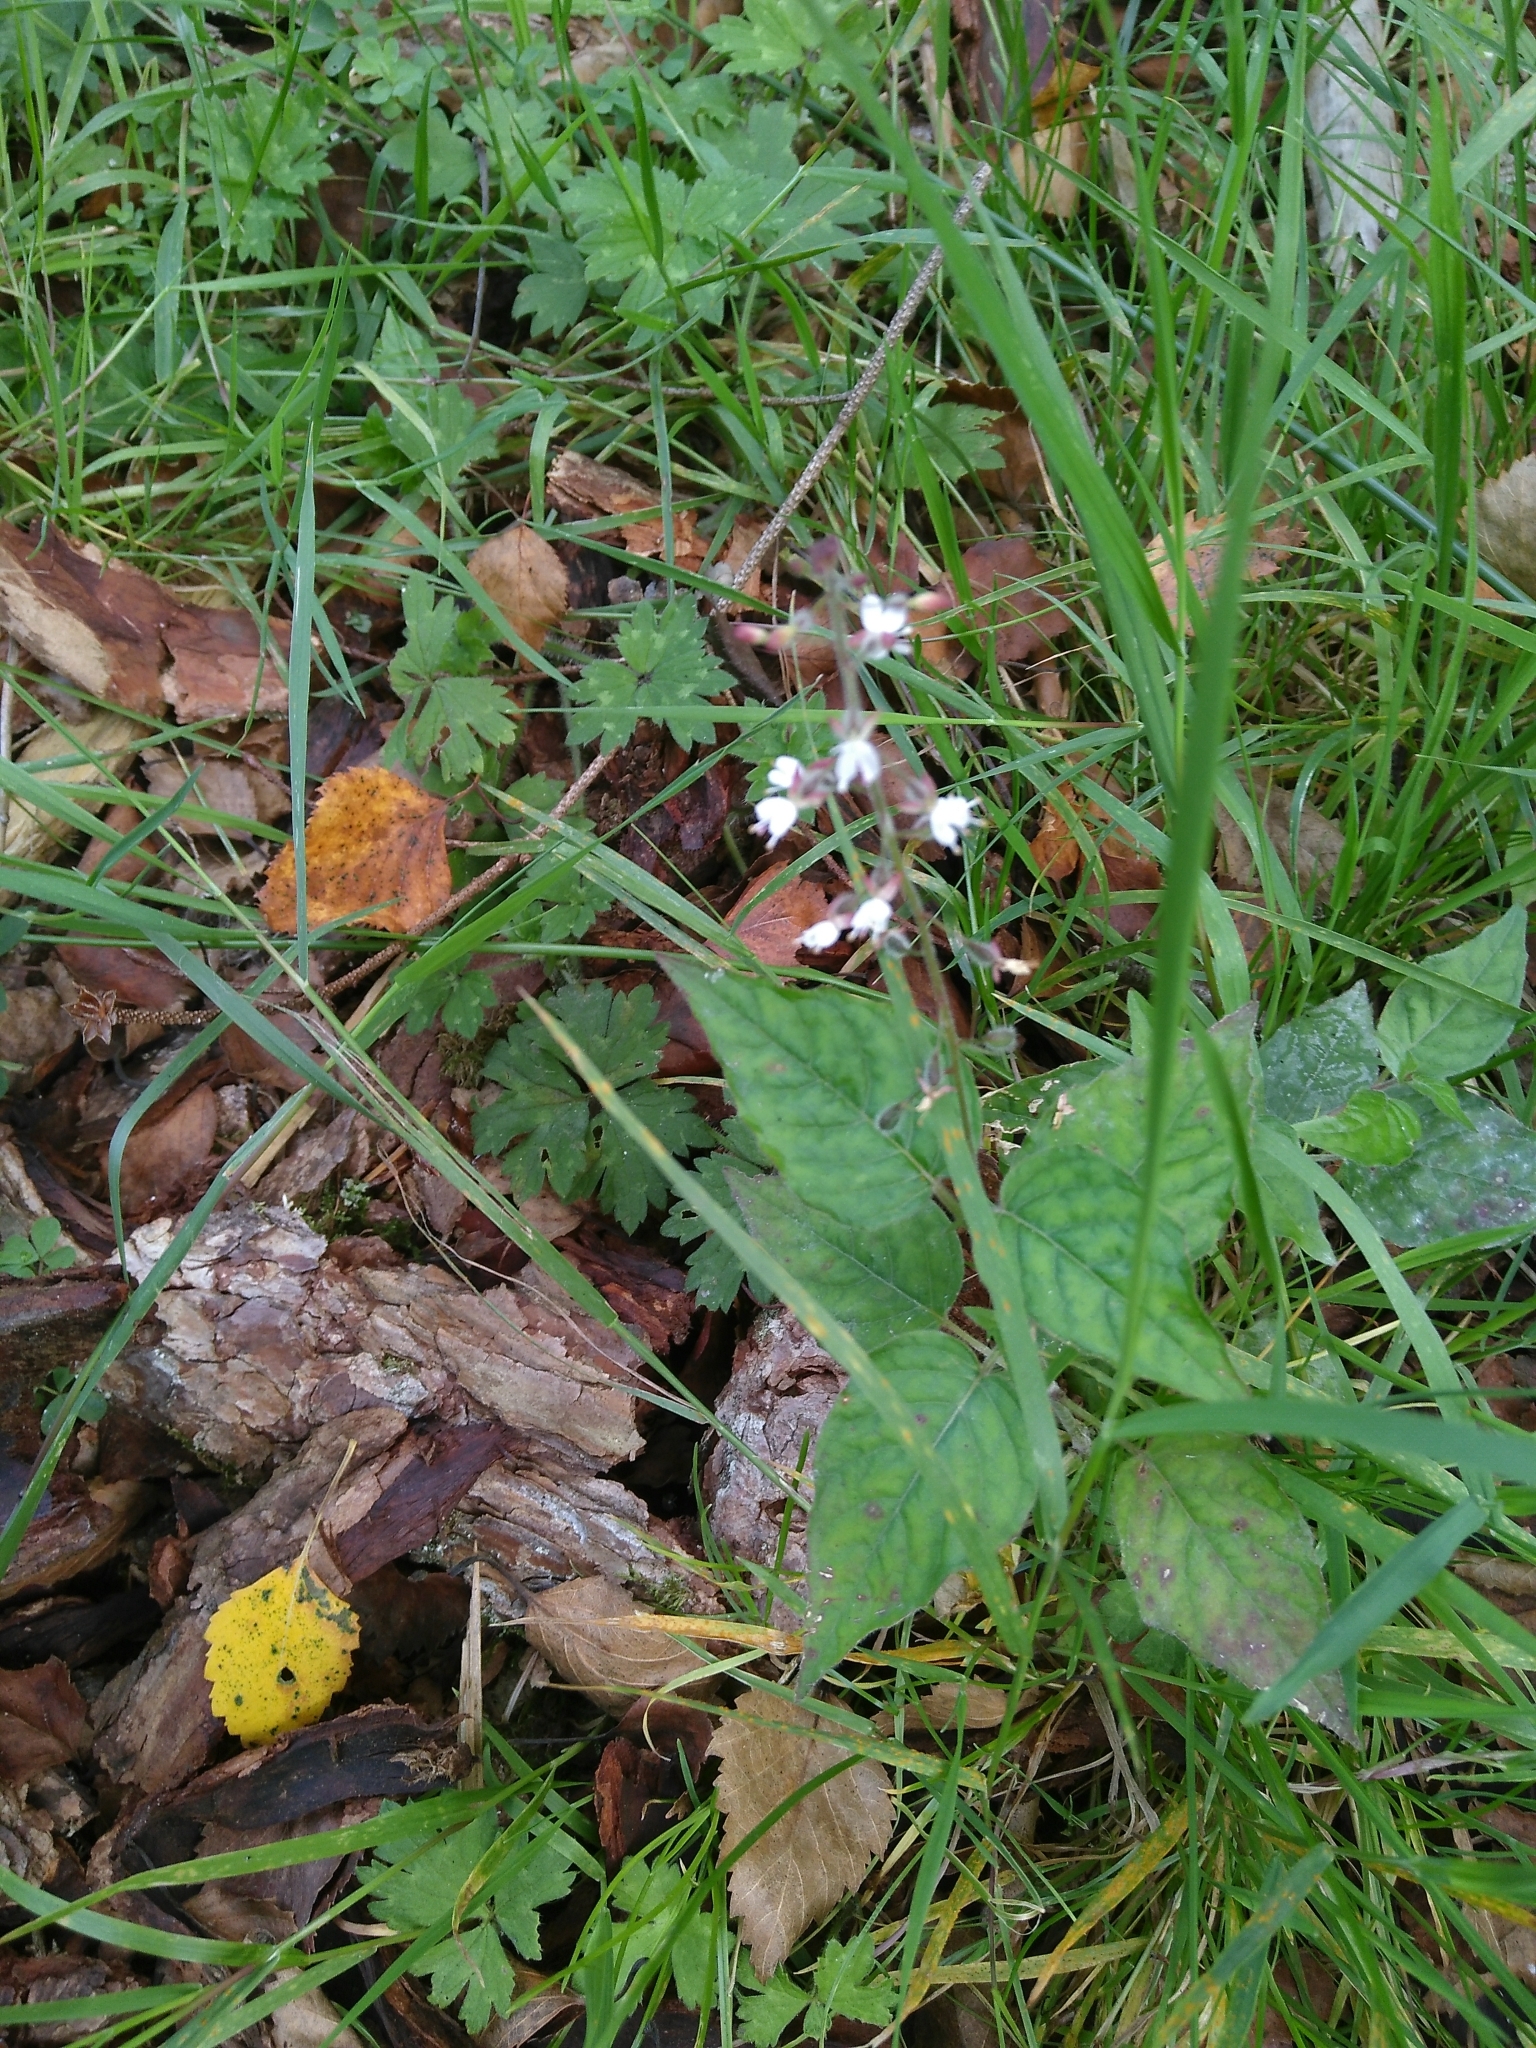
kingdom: Plantae
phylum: Tracheophyta
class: Magnoliopsida
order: Myrtales
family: Onagraceae
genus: Circaea
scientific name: Circaea lutetiana
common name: Enchanter's-nightshade
